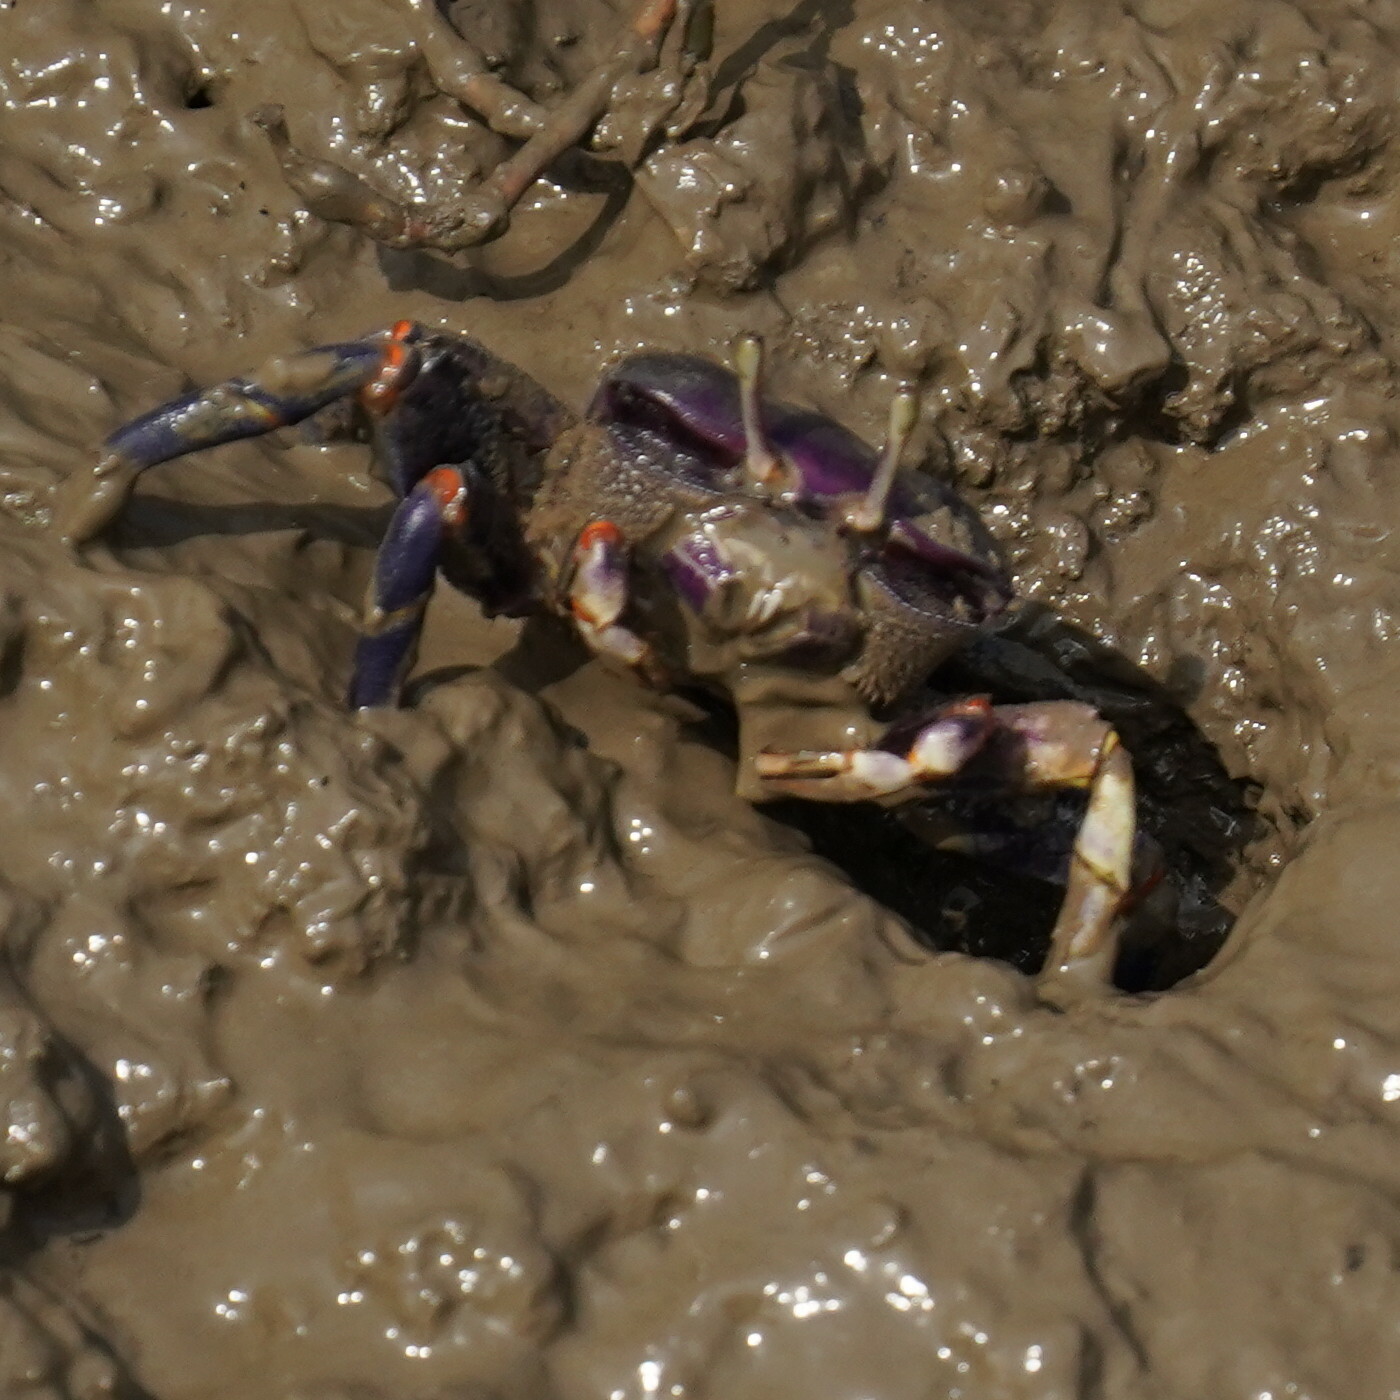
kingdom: Animalia
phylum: Arthropoda
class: Malacostraca
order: Decapoda
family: Ocypodidae
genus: Afruca
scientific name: Afruca tangeri
